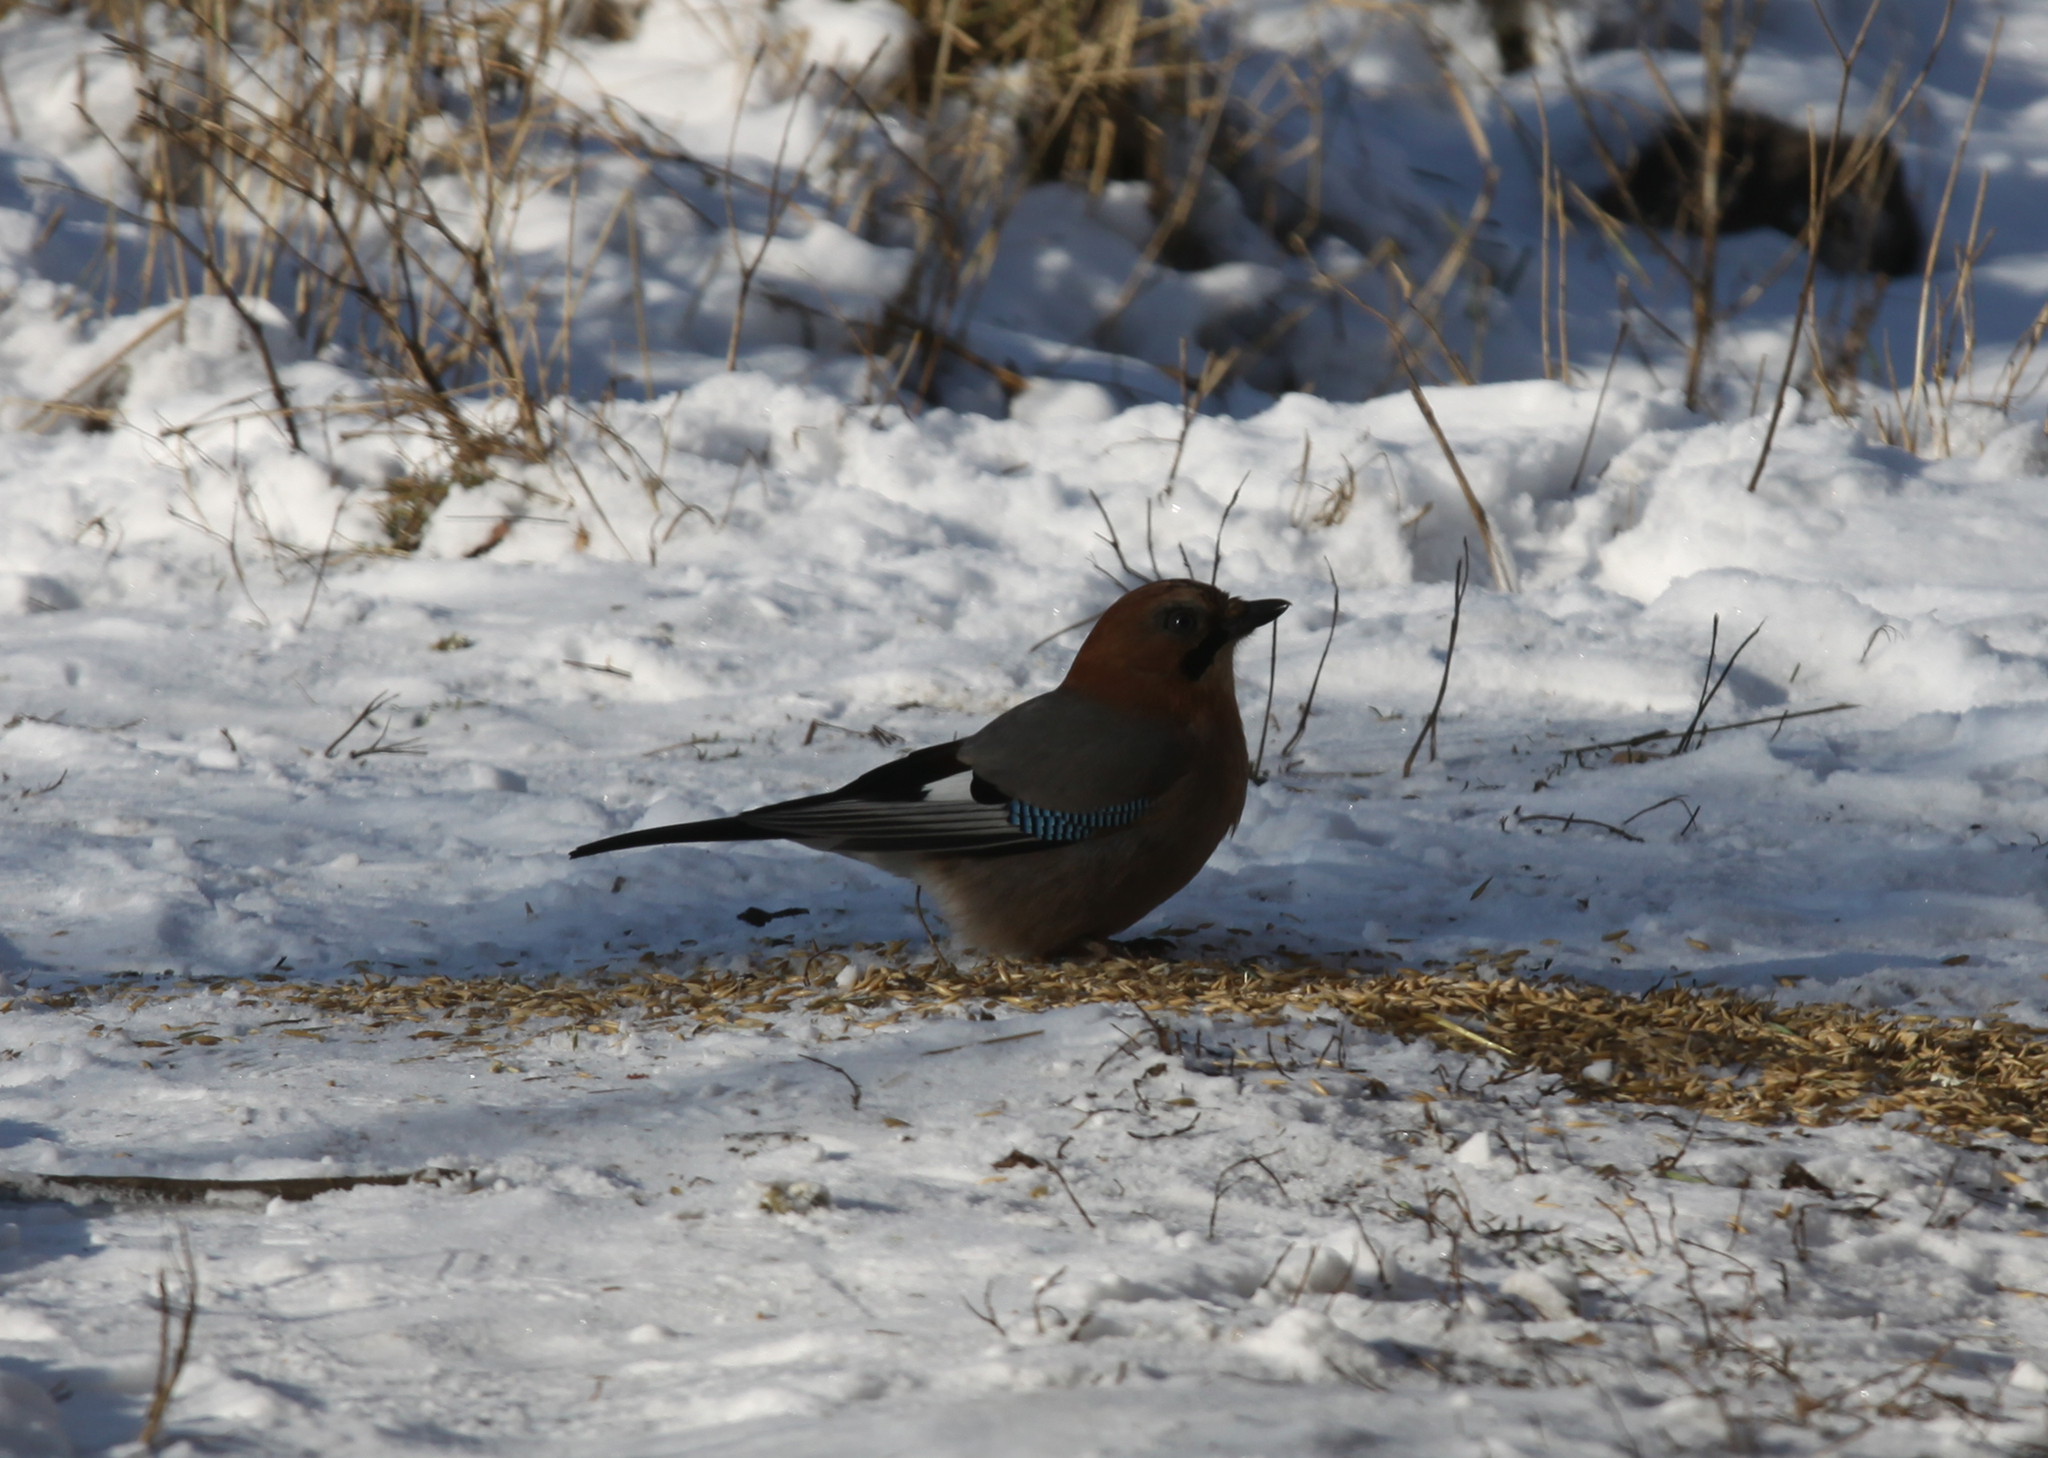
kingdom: Animalia
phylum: Chordata
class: Aves
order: Passeriformes
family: Corvidae
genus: Garrulus
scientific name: Garrulus glandarius
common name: Eurasian jay
